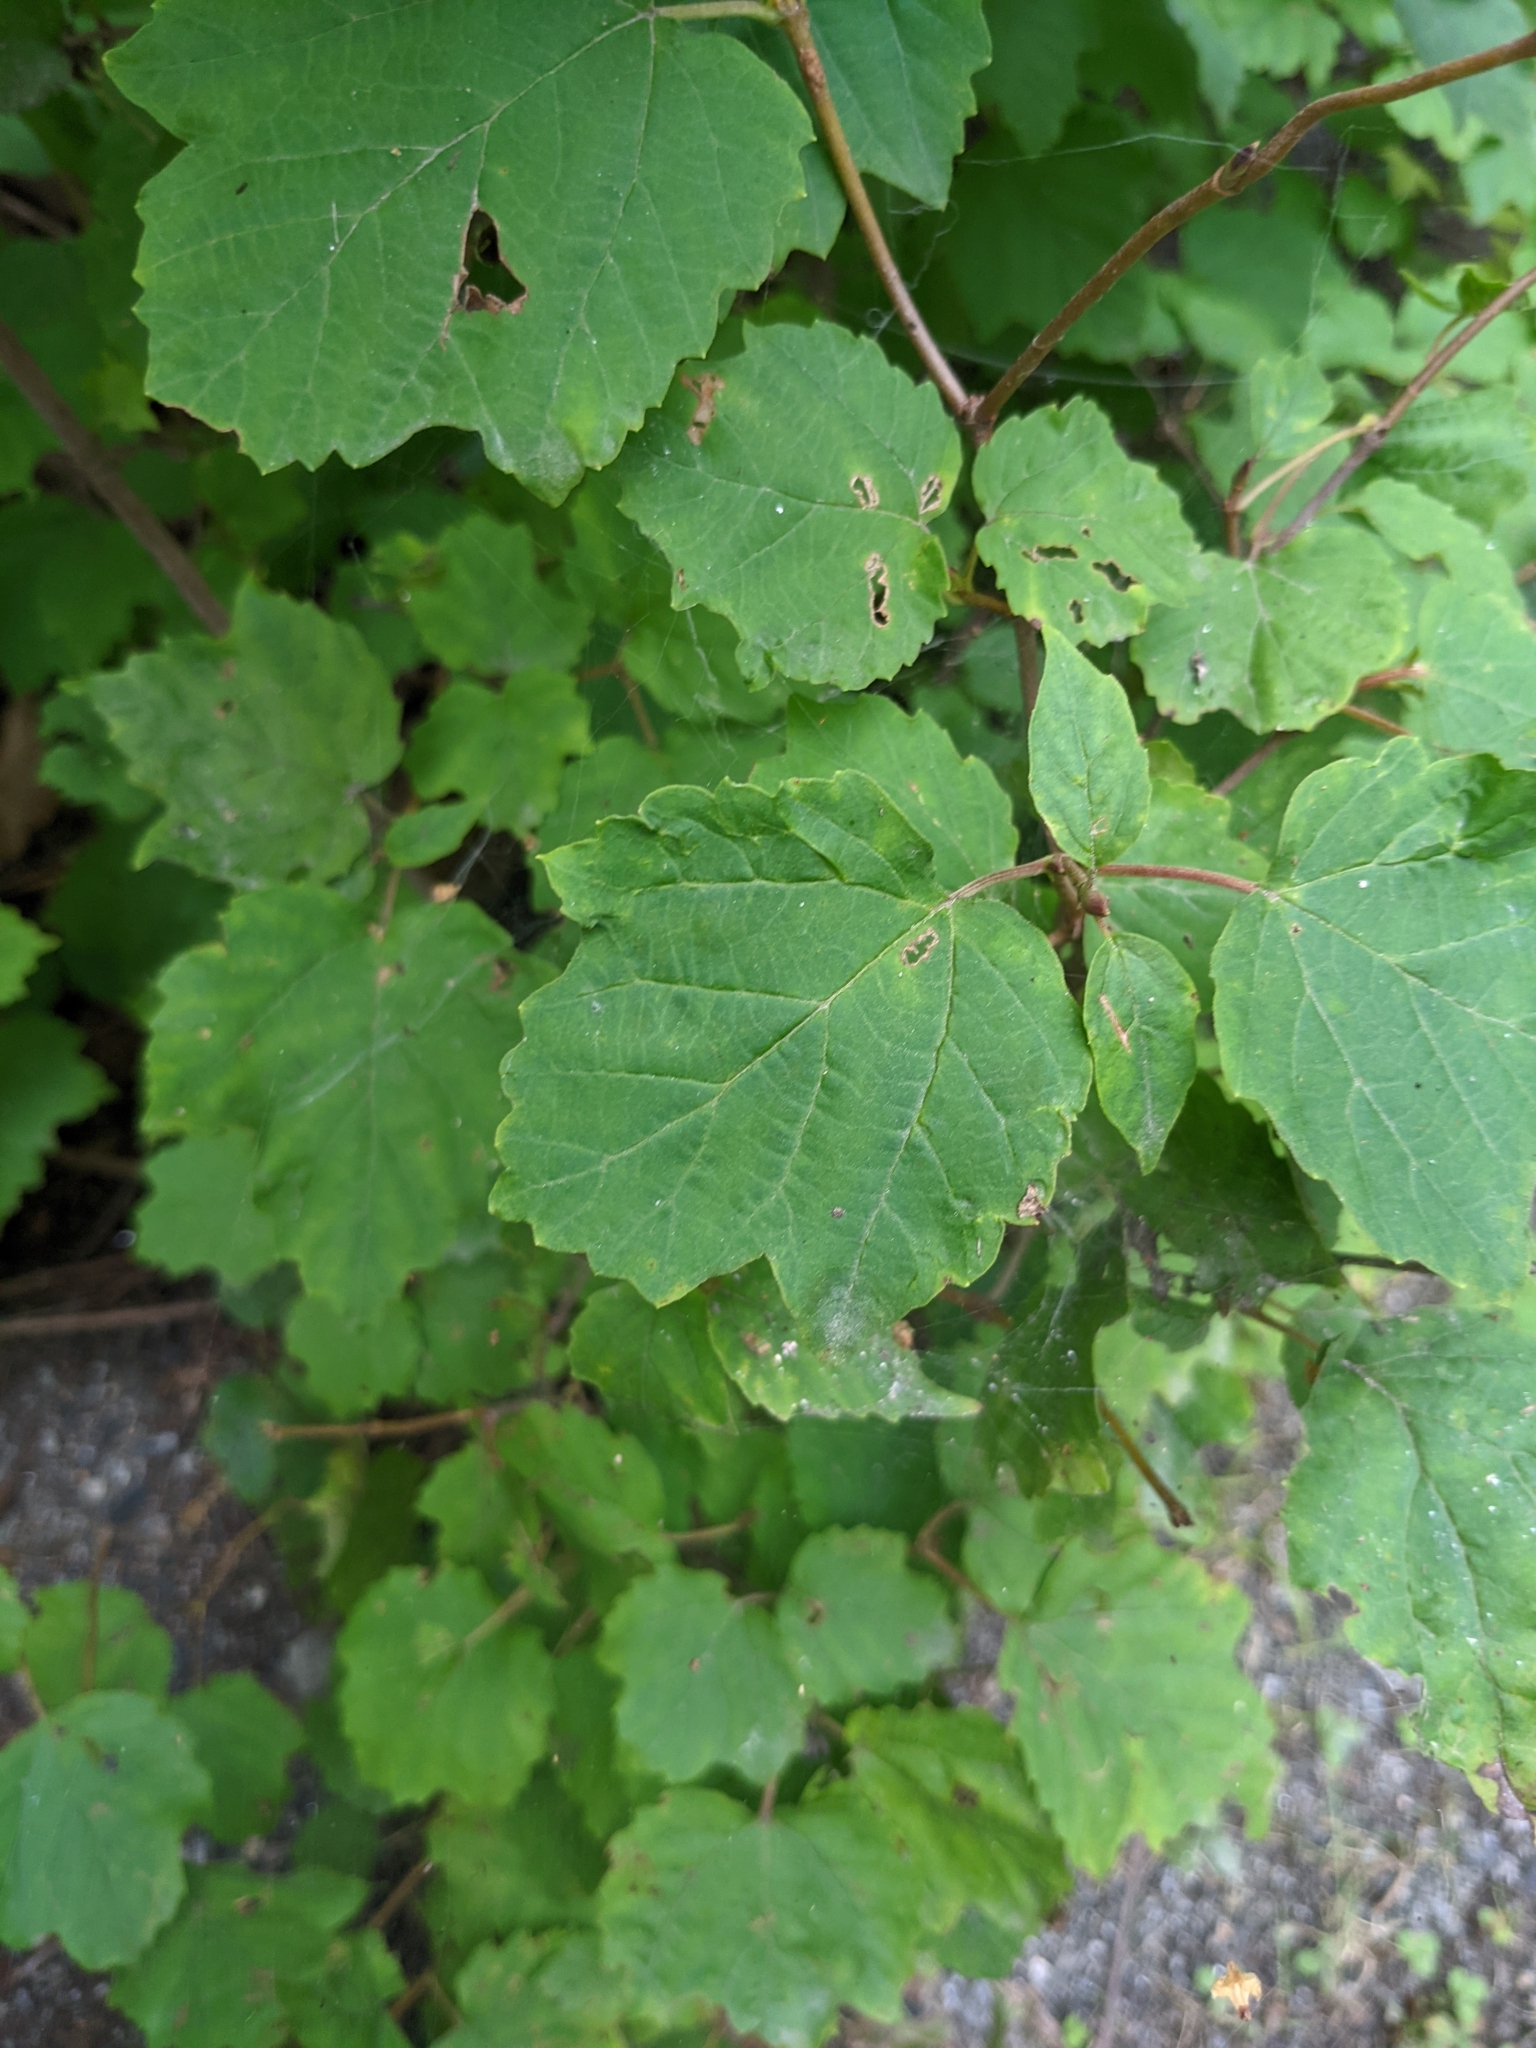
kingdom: Plantae
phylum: Tracheophyta
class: Magnoliopsida
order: Dipsacales
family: Viburnaceae
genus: Viburnum
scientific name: Viburnum acerifolium
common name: Dockmackie
